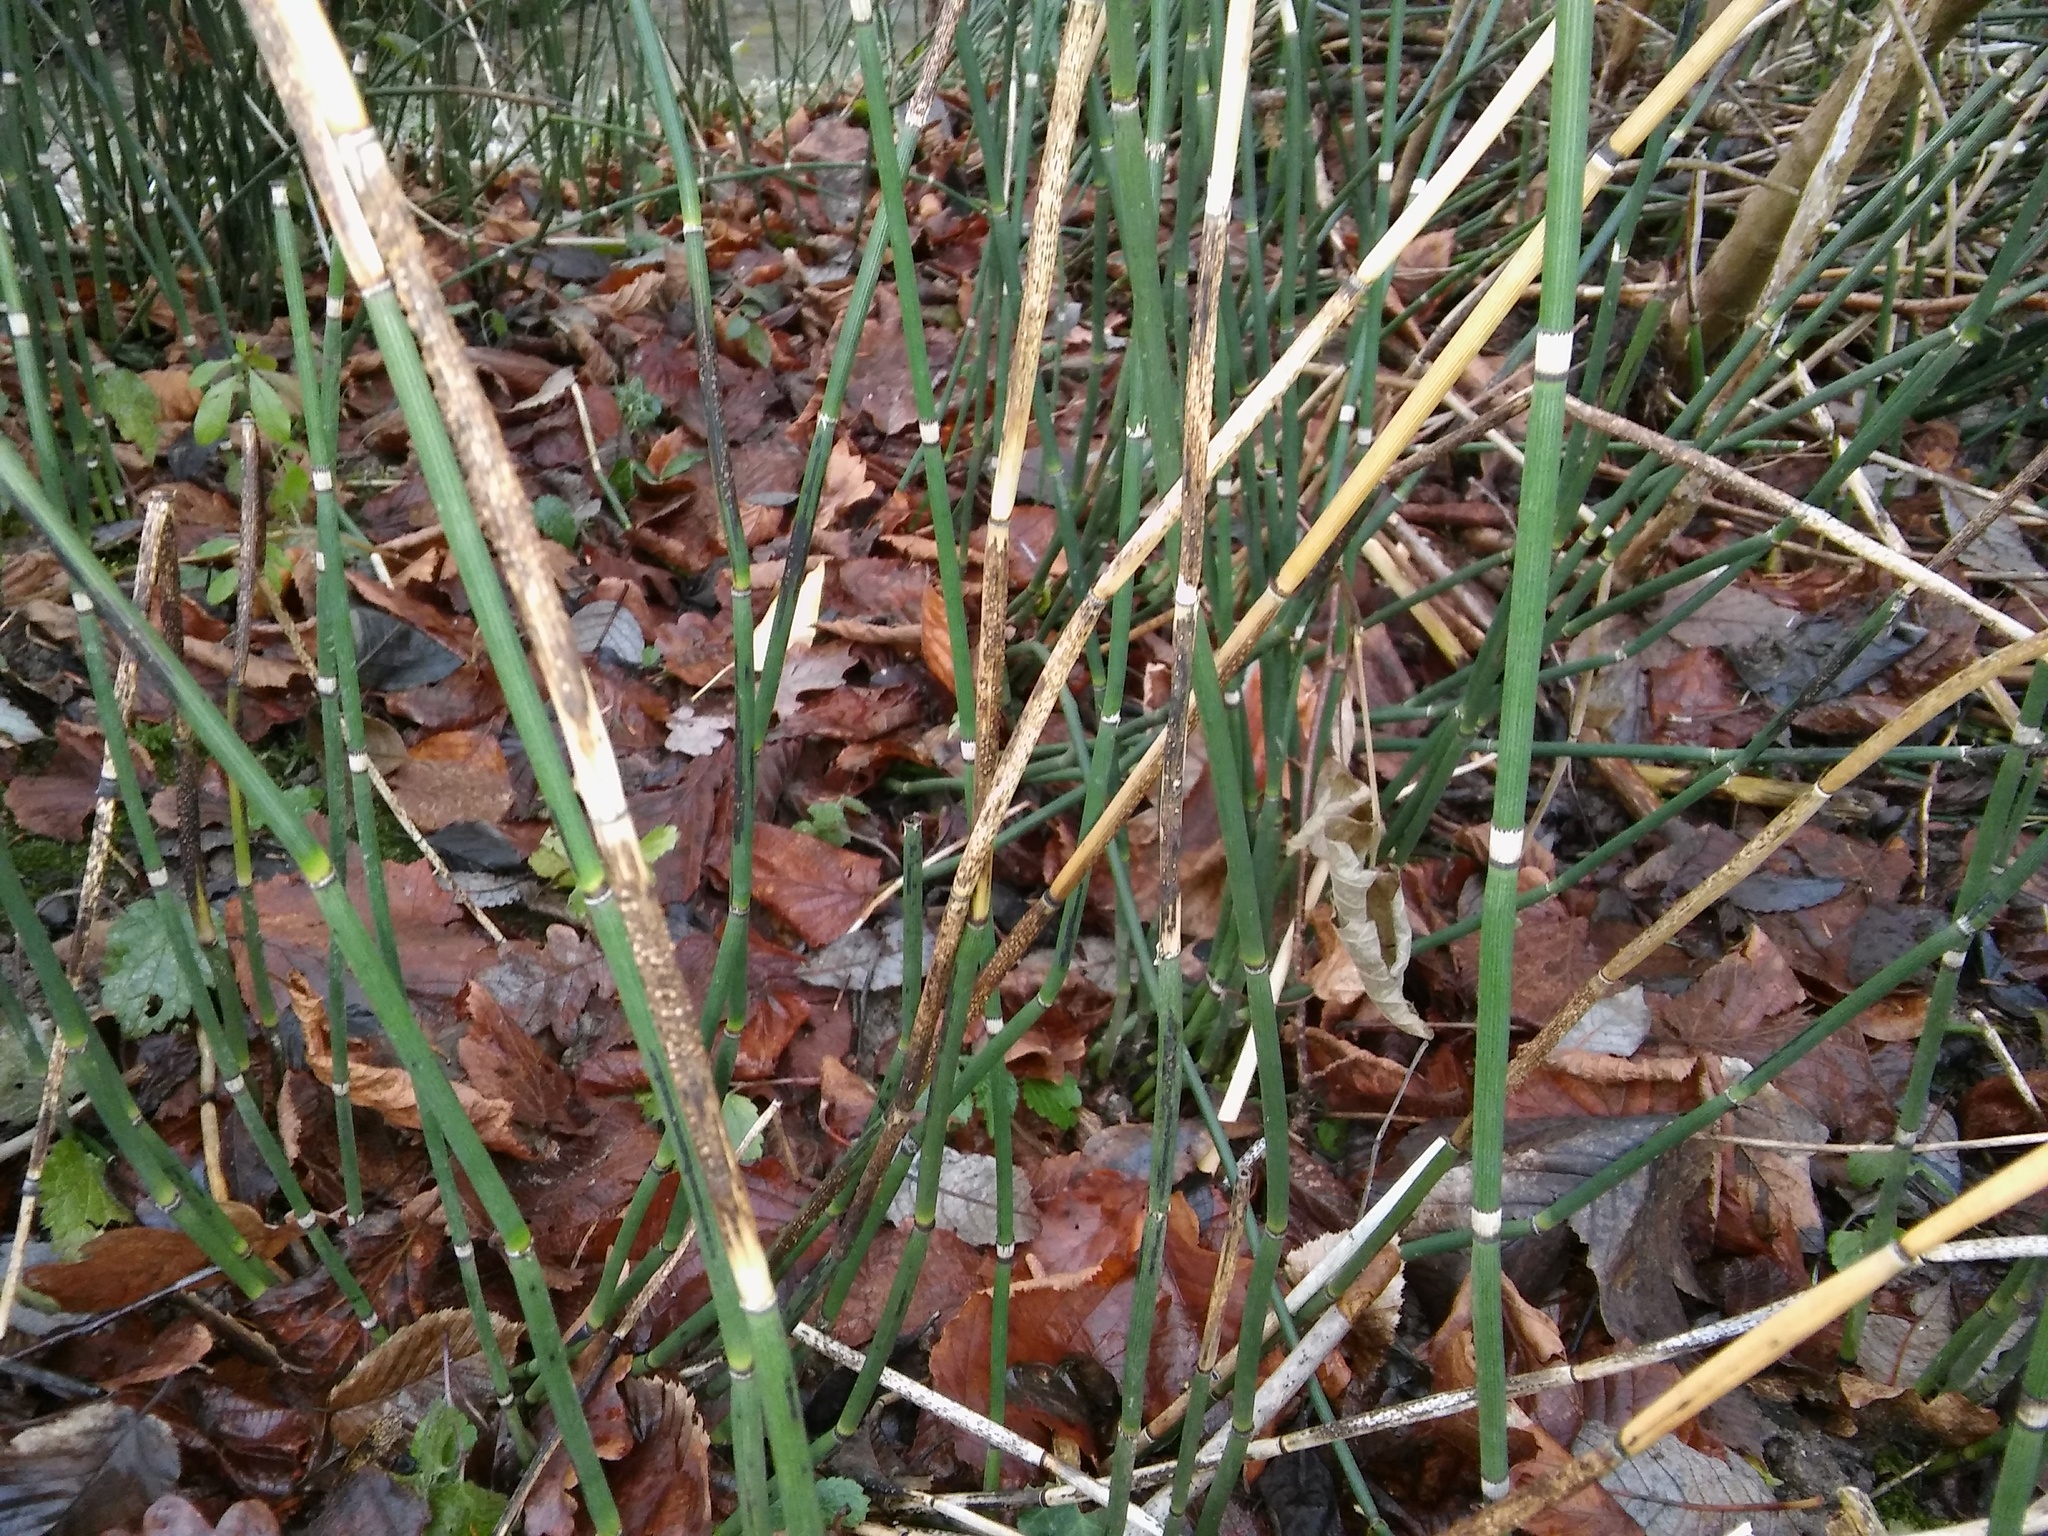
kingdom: Fungi
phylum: Ascomycota
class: Leotiomycetes
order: Helotiales
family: Helotiaceae
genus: Stamnaria
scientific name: Stamnaria americana
